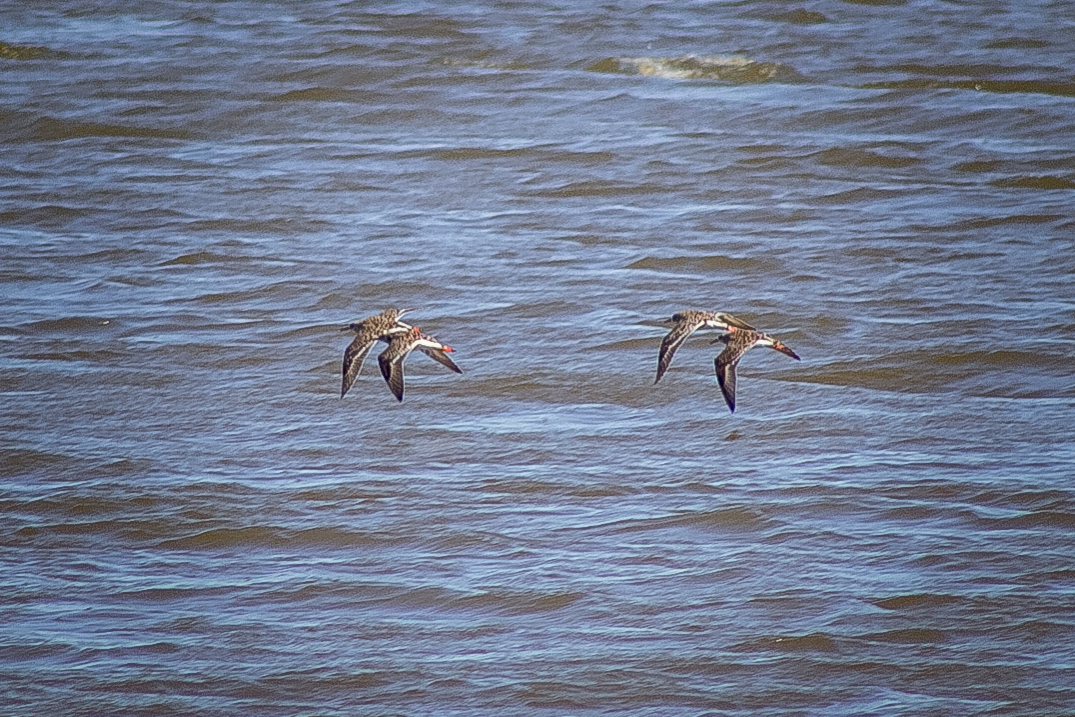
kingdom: Animalia
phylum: Chordata
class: Aves
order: Charadriiformes
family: Scolopacidae
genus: Calidris
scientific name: Calidris pugnax
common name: Ruff
